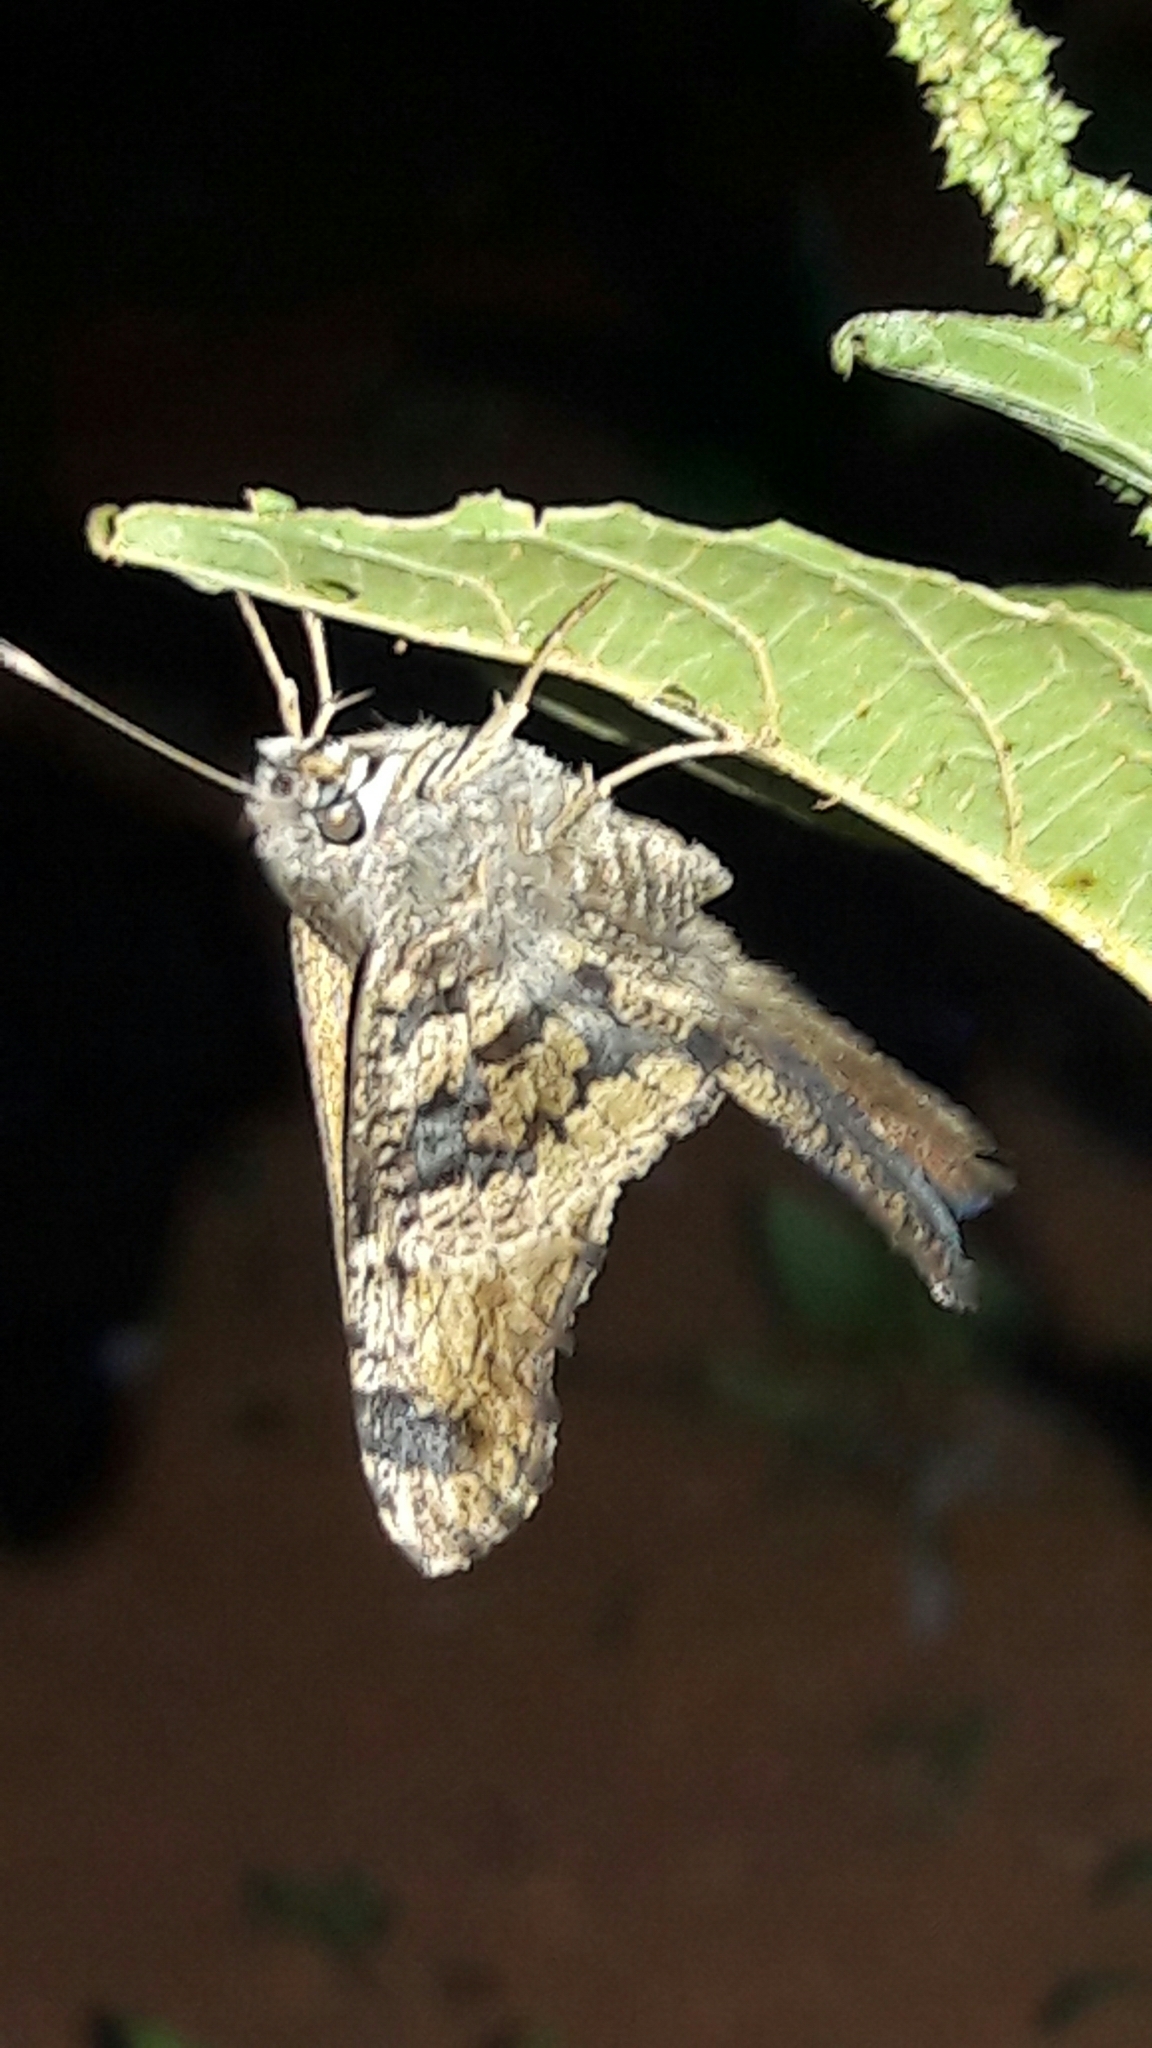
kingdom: Animalia
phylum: Arthropoda
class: Insecta
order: Lepidoptera
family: Hesperiidae
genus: Typhedanus
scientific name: Typhedanus undulatus
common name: Mottled longtail
